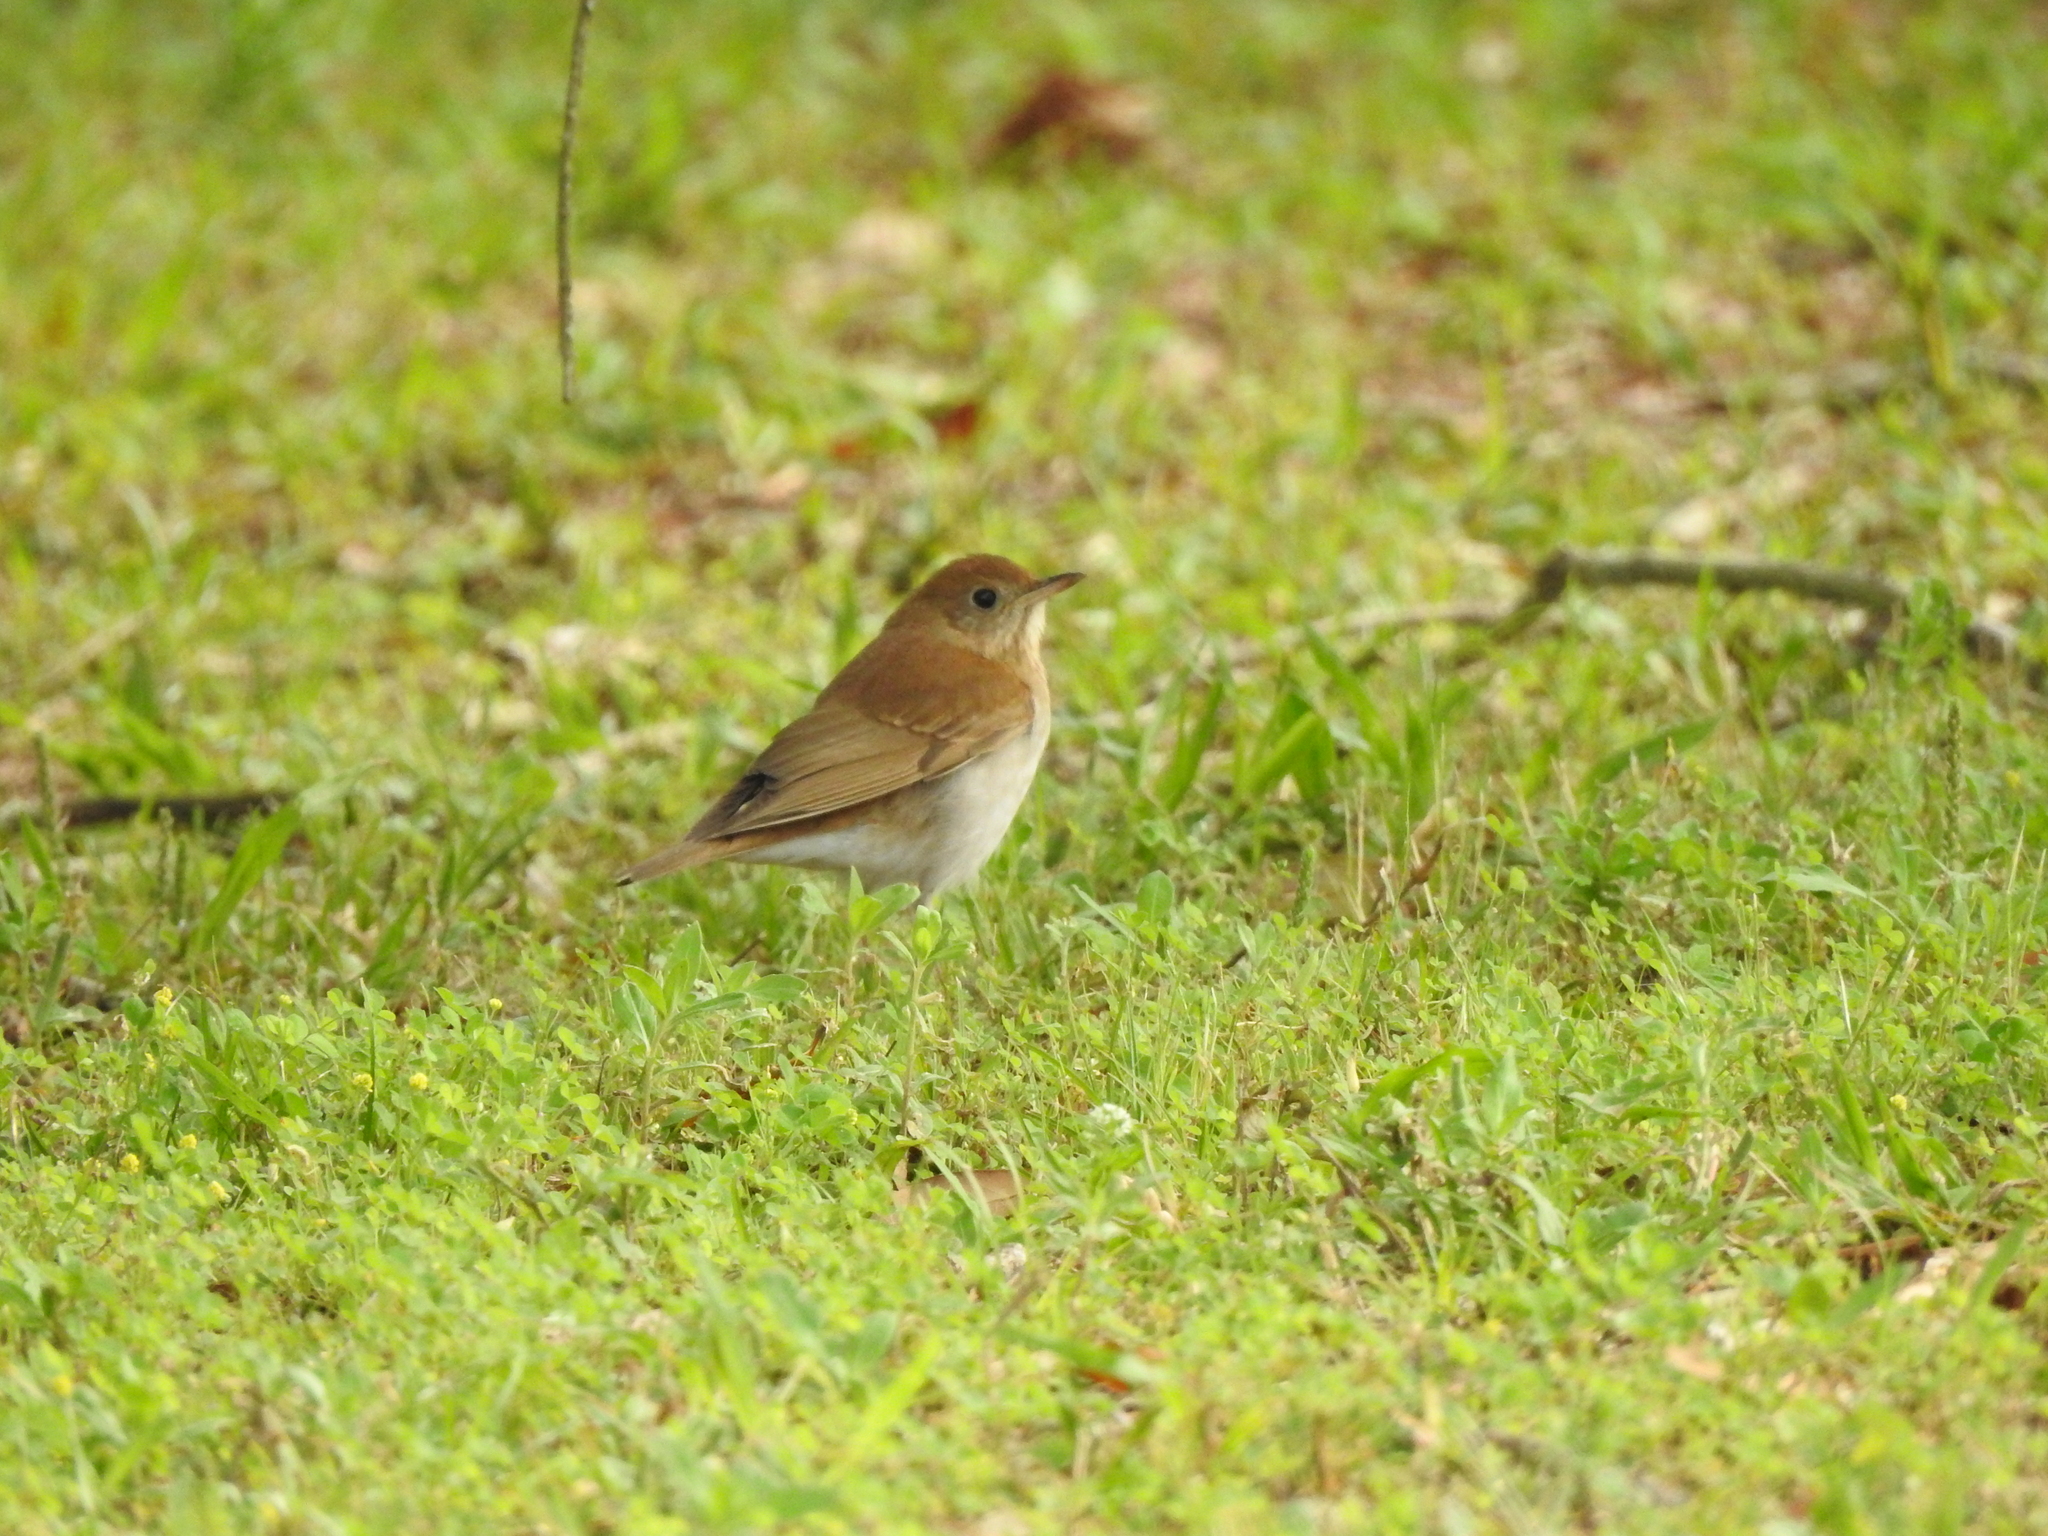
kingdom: Animalia
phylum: Chordata
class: Aves
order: Passeriformes
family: Turdidae
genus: Catharus
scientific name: Catharus fuscescens
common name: Veery
